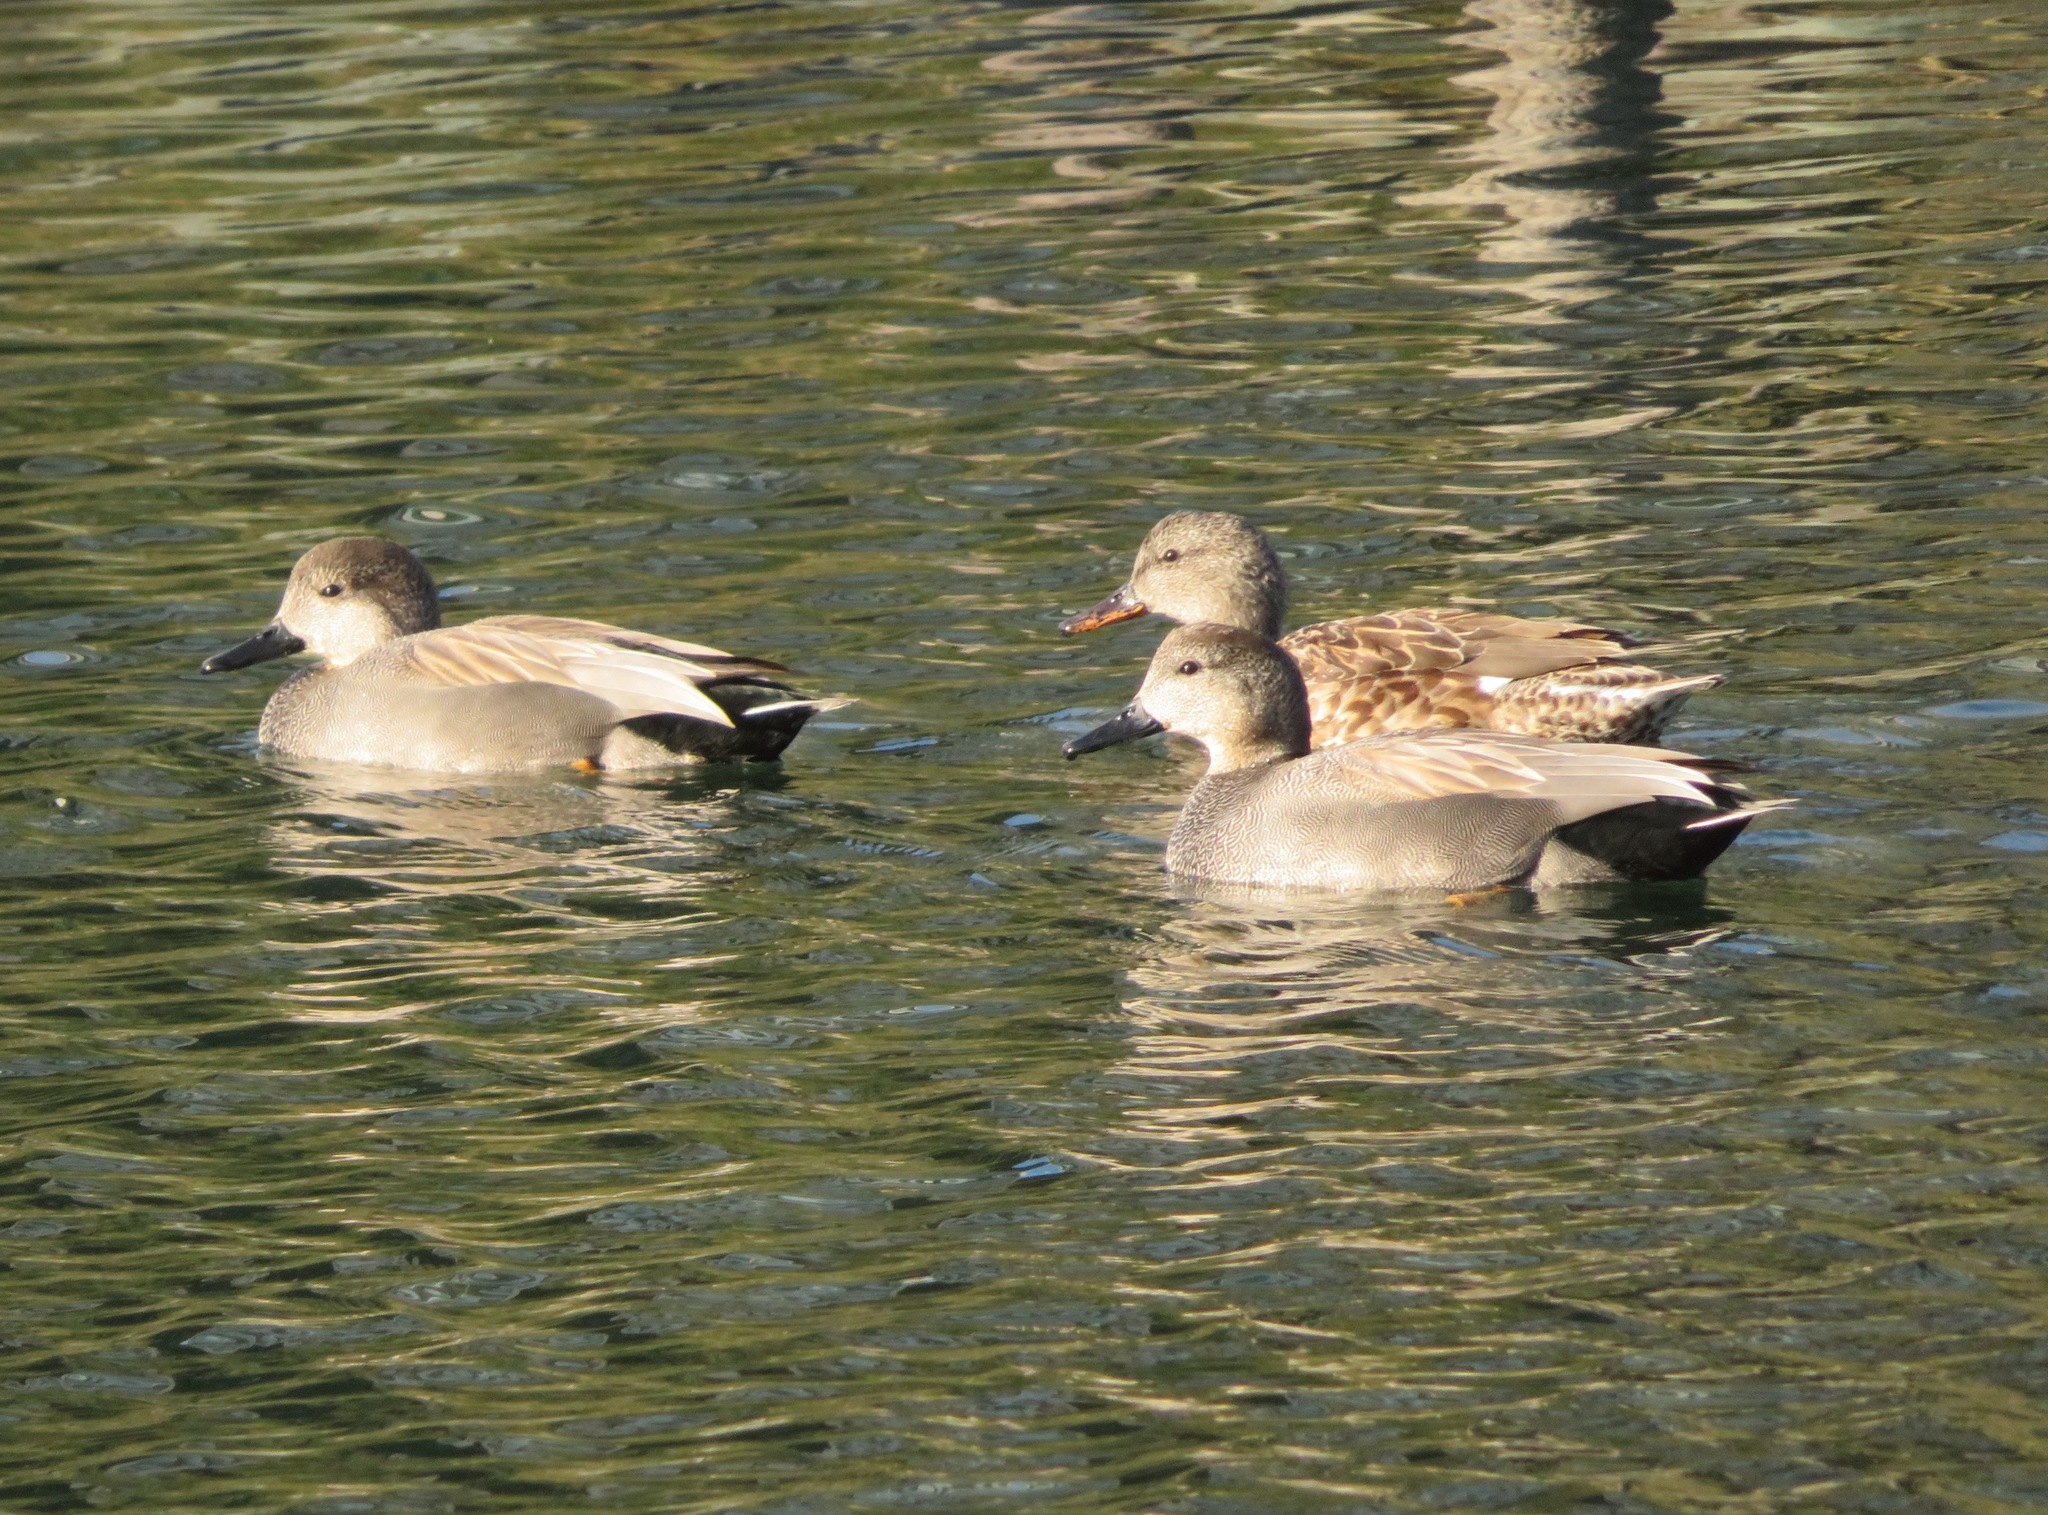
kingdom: Animalia
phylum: Chordata
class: Aves
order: Anseriformes
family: Anatidae
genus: Mareca
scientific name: Mareca strepera
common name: Gadwall
